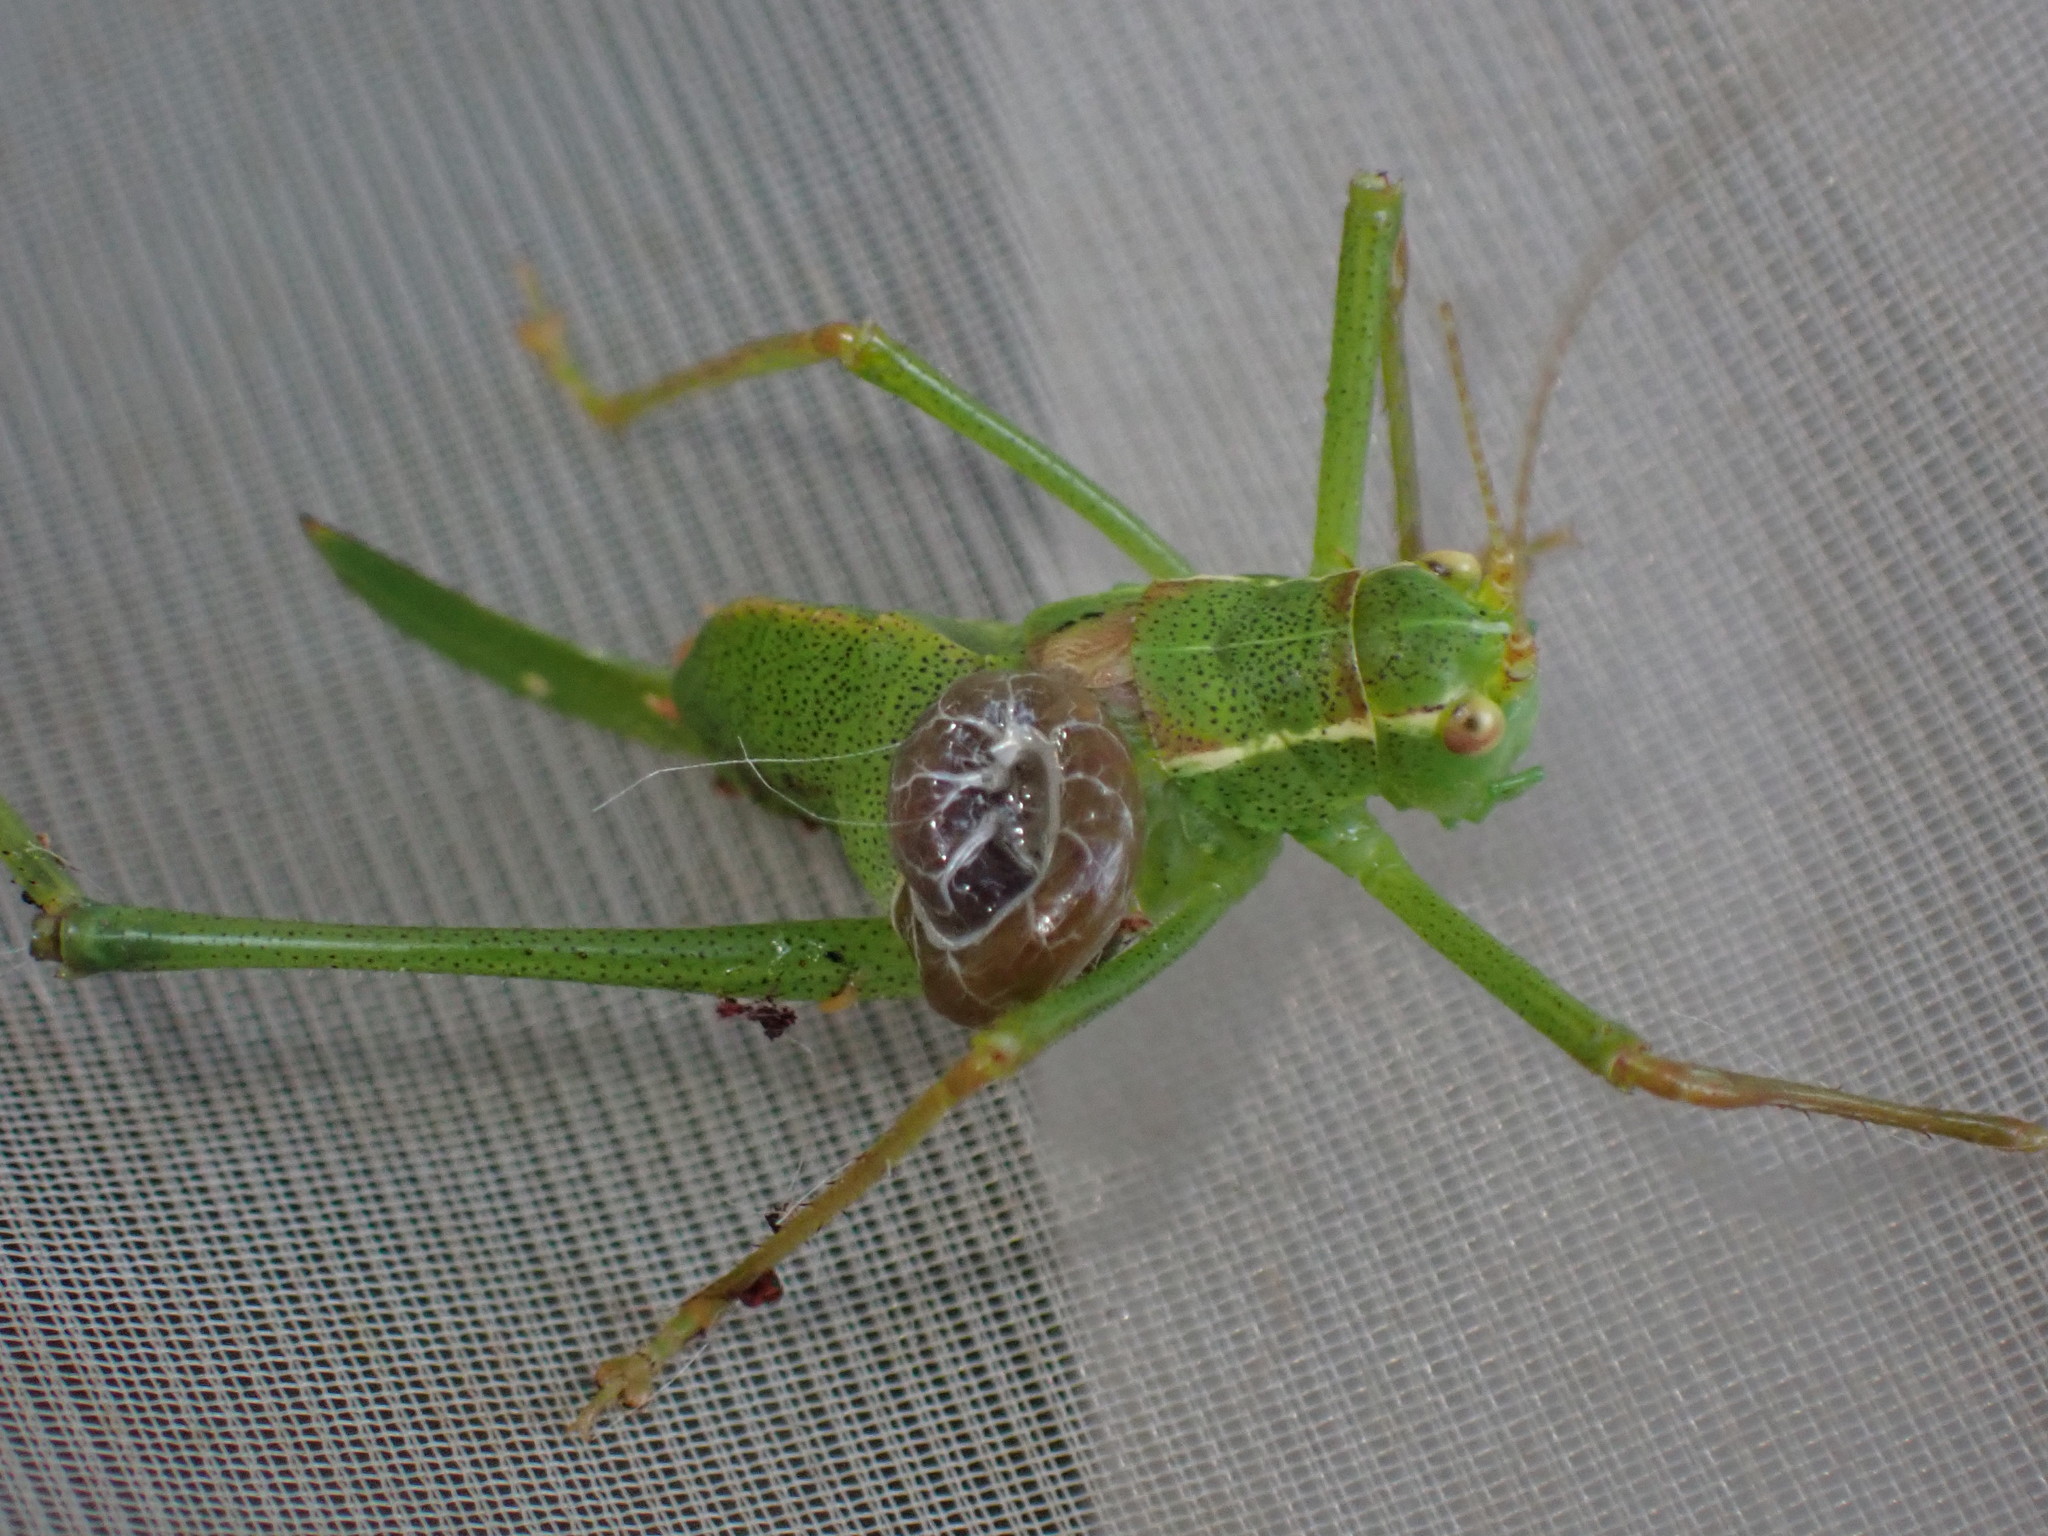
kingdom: Animalia
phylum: Arthropoda
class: Insecta
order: Orthoptera
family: Tettigoniidae
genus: Leptophyes
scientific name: Leptophyes punctatissima
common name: Speckled bush-cricket
